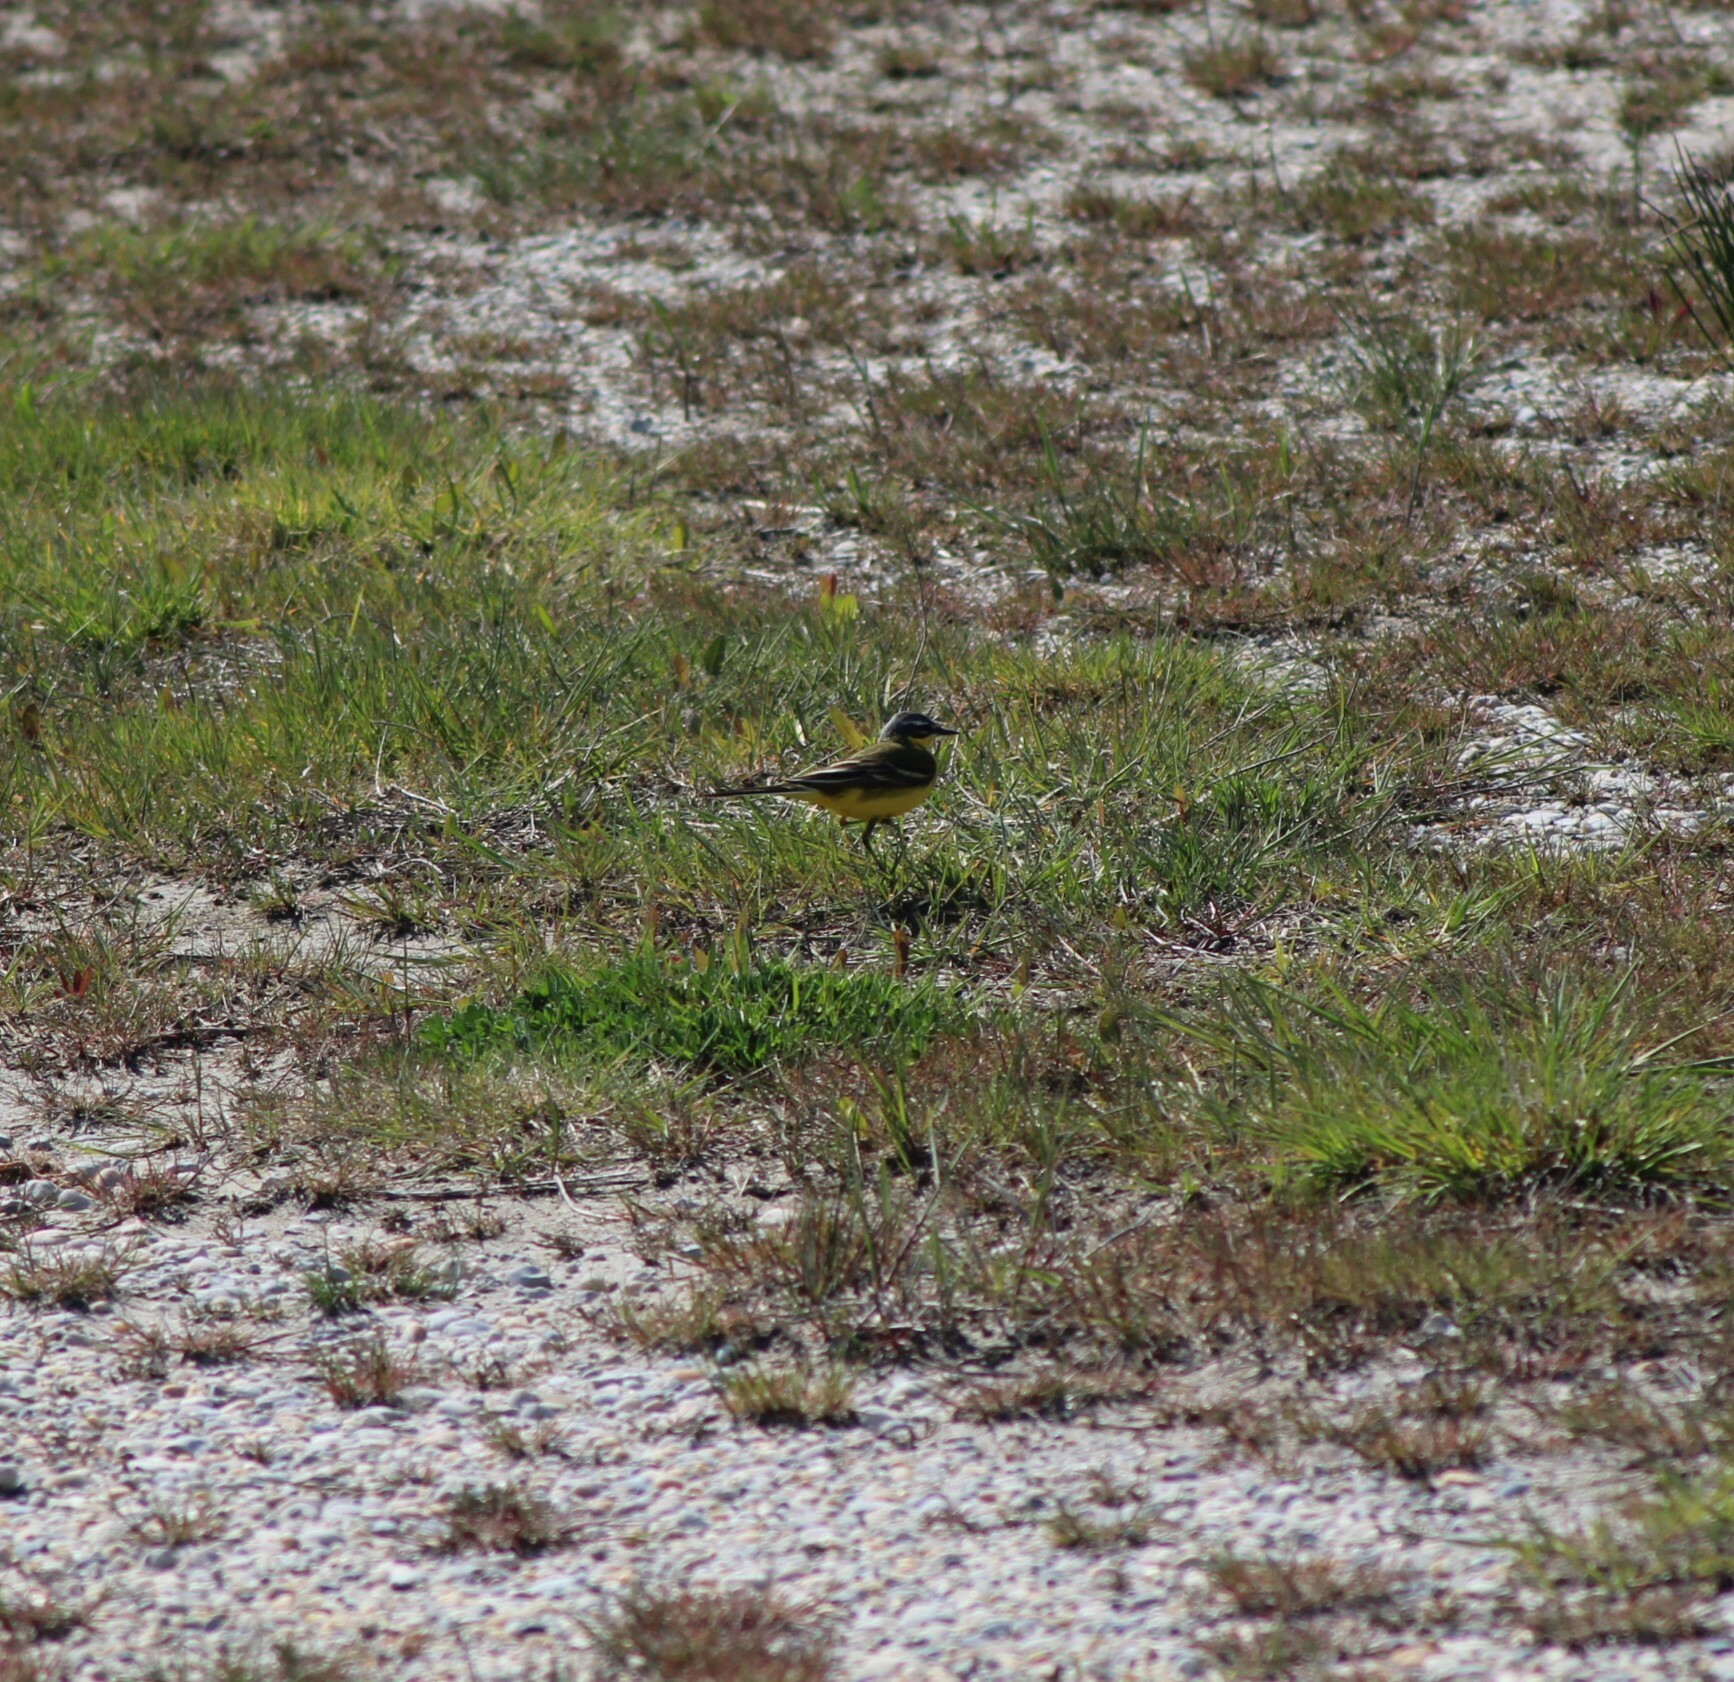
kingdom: Animalia
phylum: Chordata
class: Aves
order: Passeriformes
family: Motacillidae
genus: Motacilla
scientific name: Motacilla flava
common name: Western yellow wagtail
